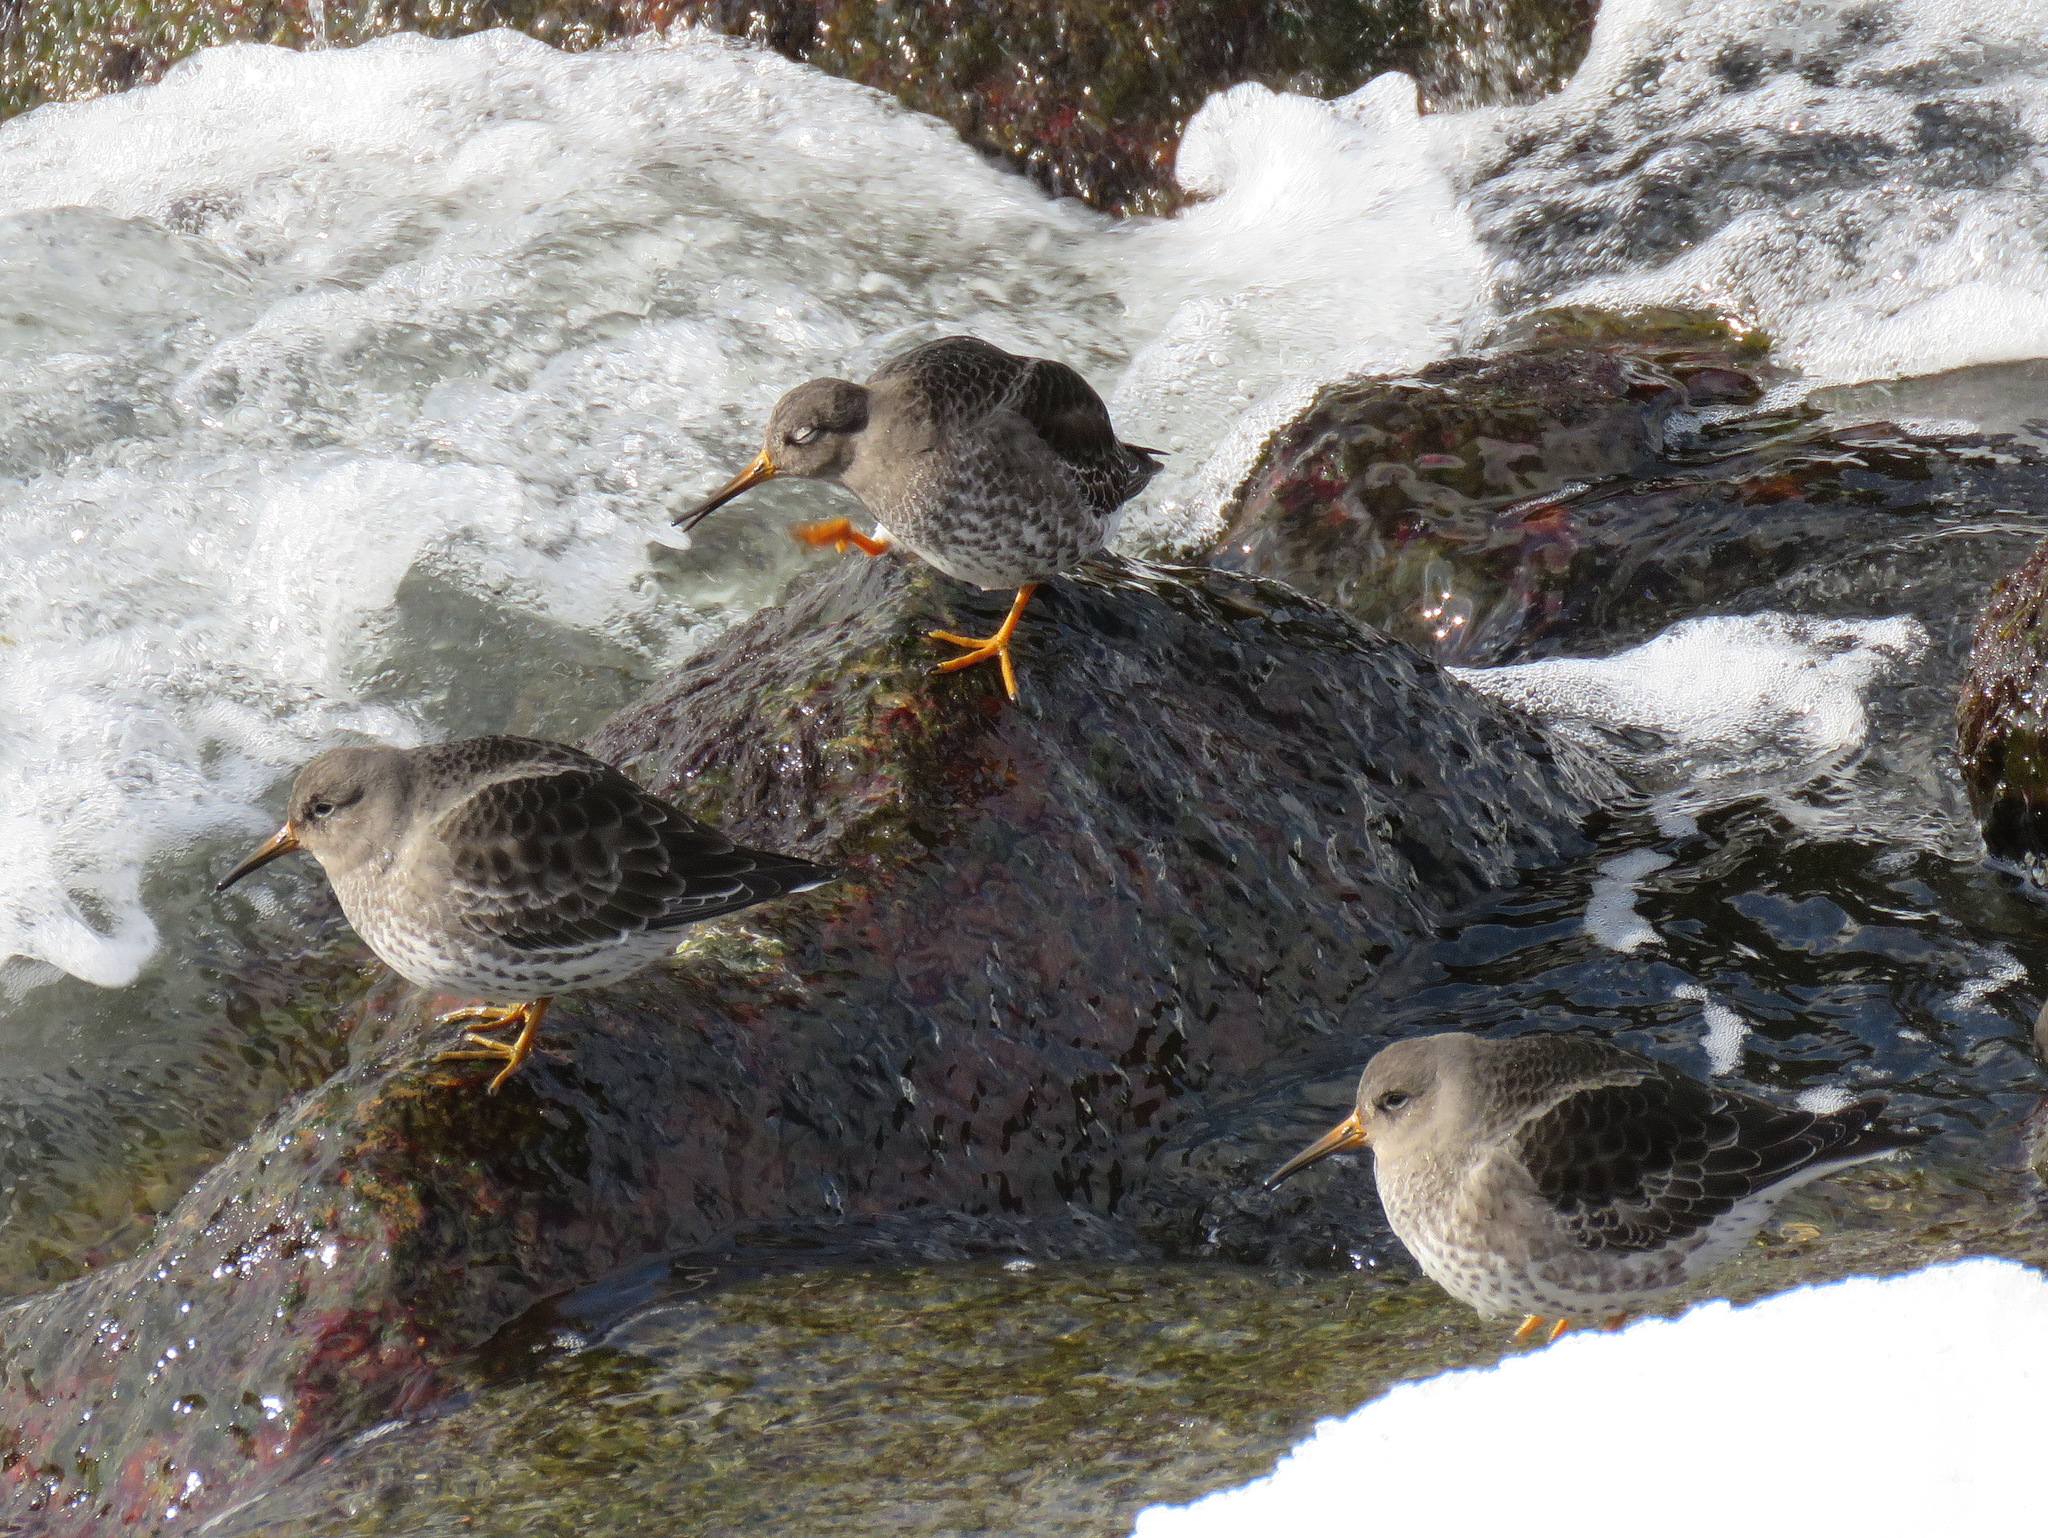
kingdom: Animalia
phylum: Chordata
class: Aves
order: Charadriiformes
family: Scolopacidae
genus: Calidris
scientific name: Calidris maritima
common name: Purple sandpiper
